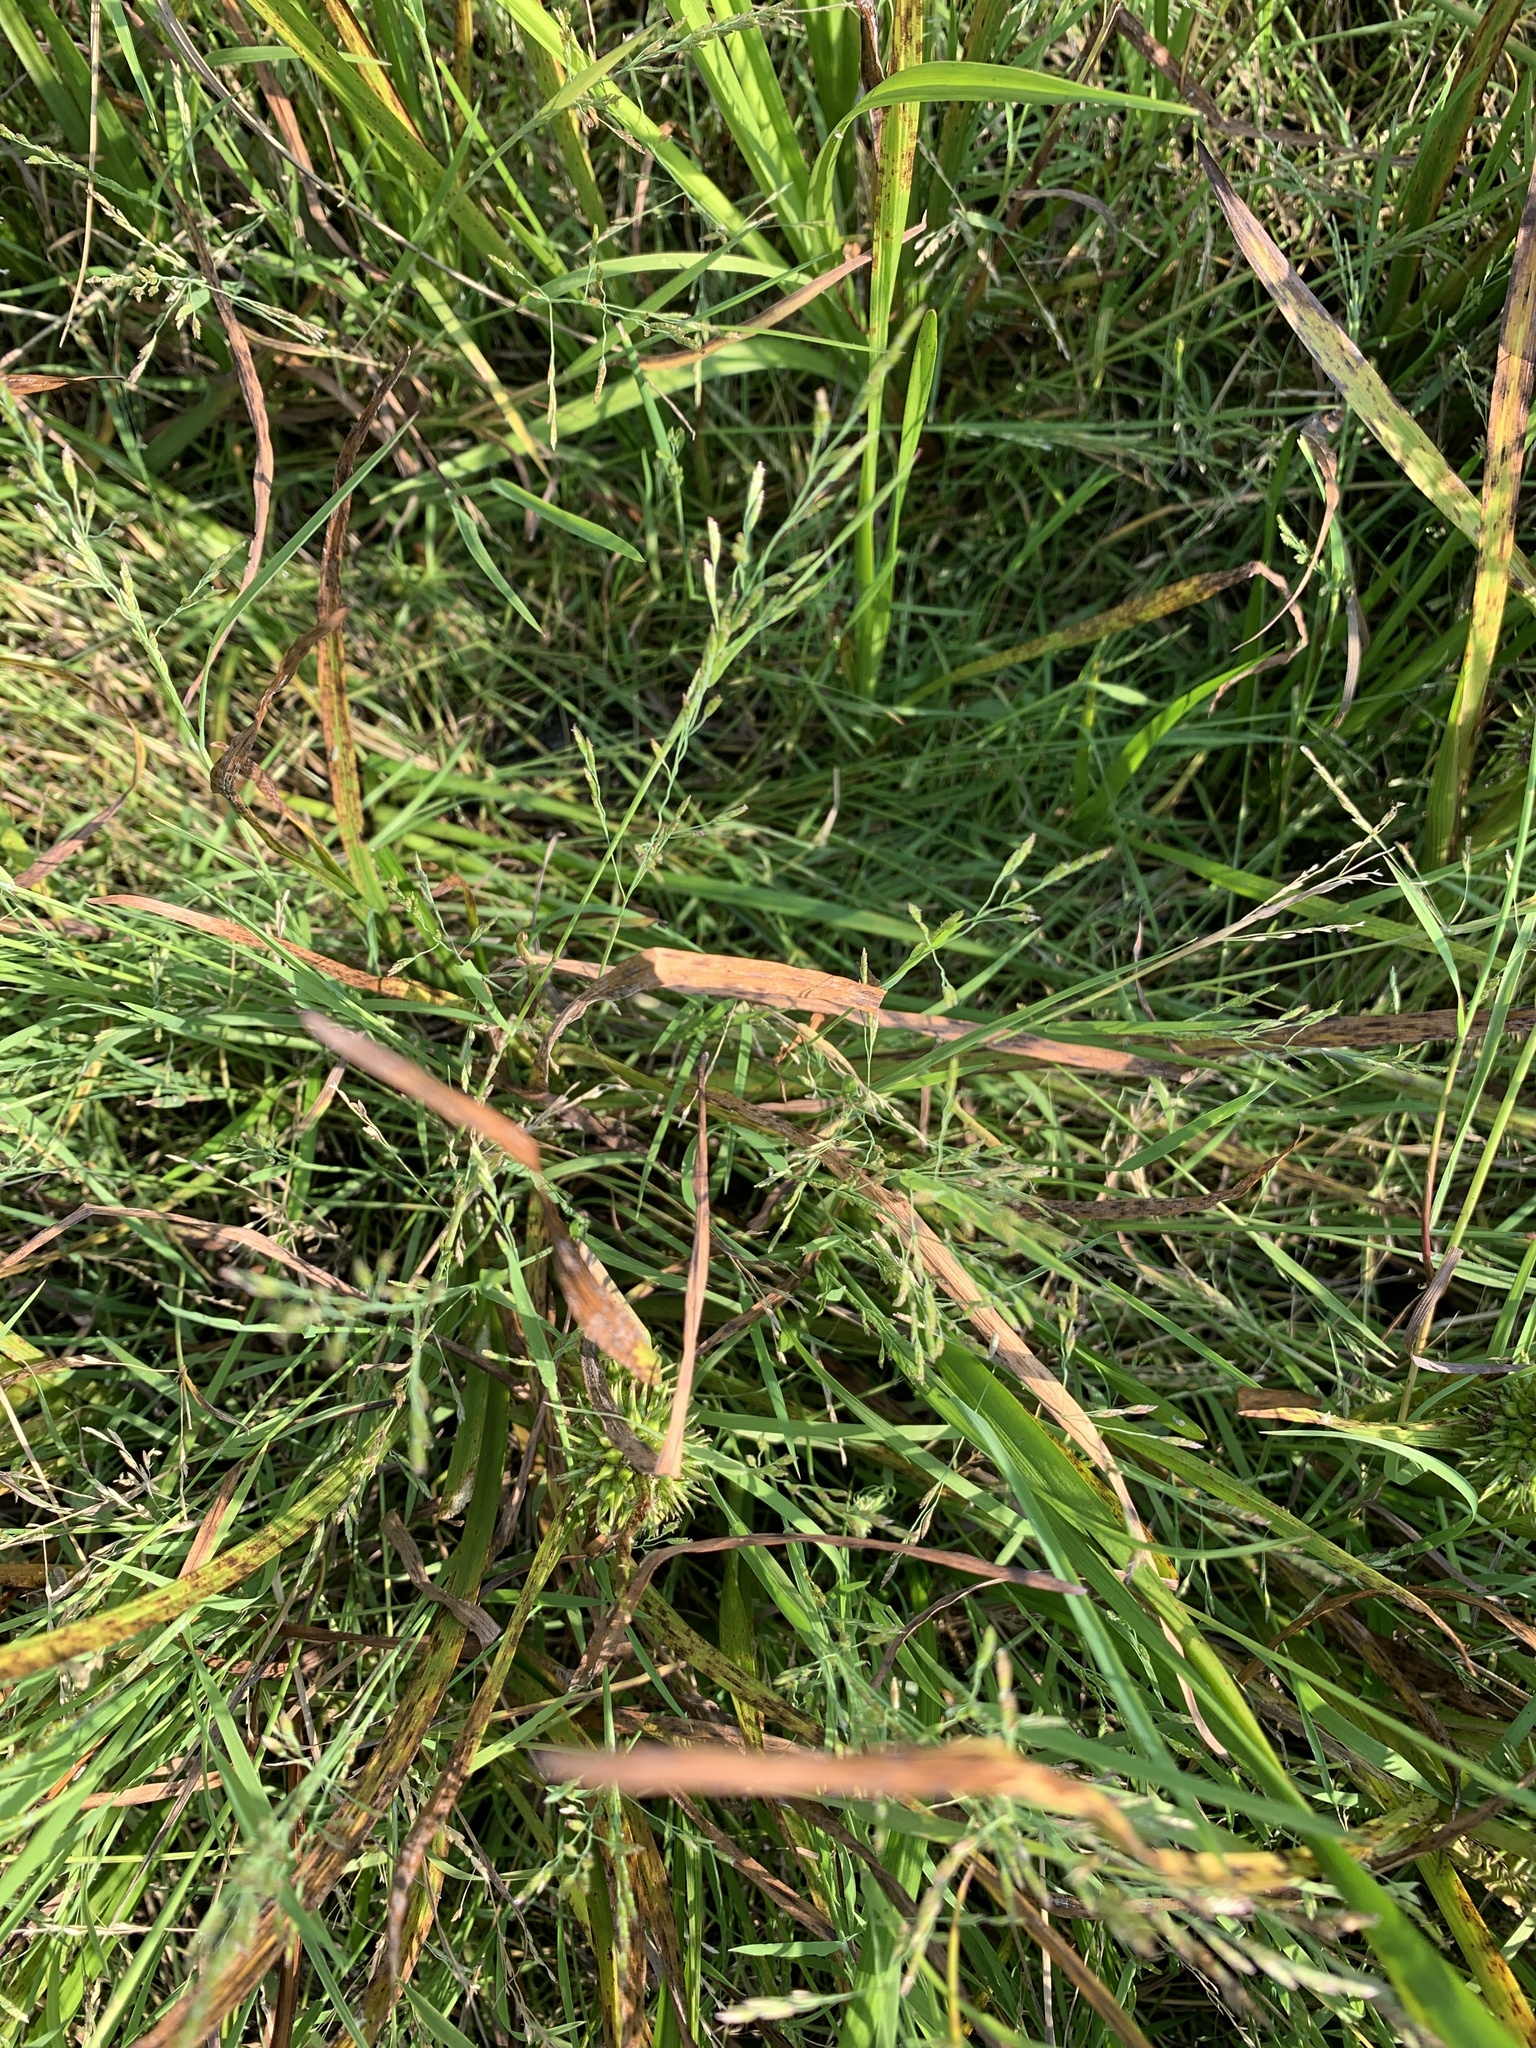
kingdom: Plantae
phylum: Tracheophyta
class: Liliopsida
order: Poales
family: Poaceae
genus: Torreyochloa
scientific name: Torreyochloa pallida
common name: Pale false mannagrass
